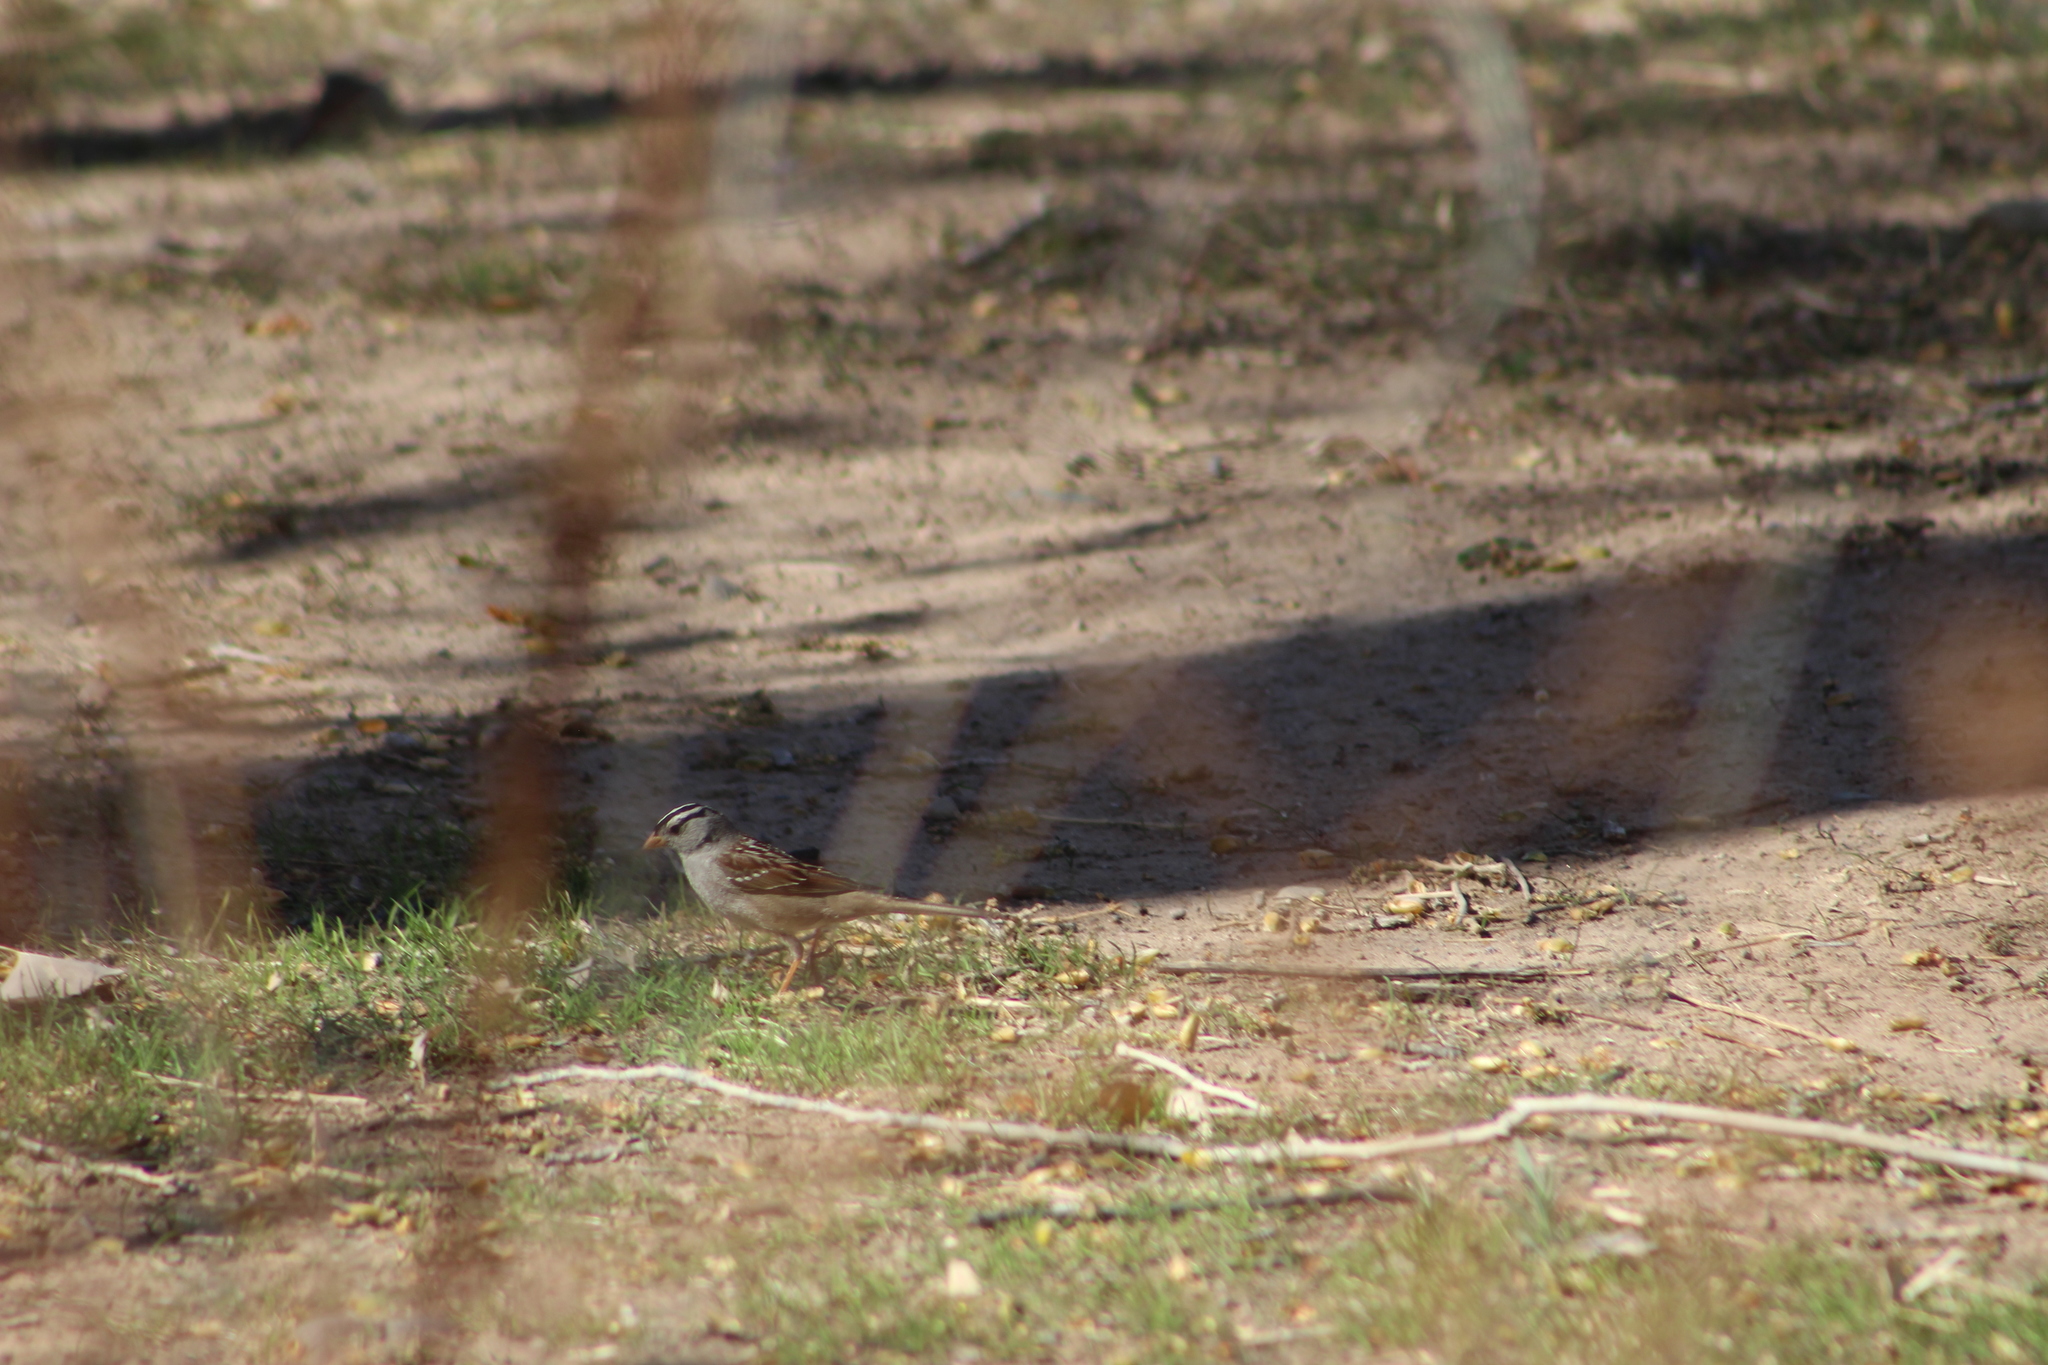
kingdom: Animalia
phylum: Chordata
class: Aves
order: Passeriformes
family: Passerellidae
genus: Zonotrichia
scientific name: Zonotrichia leucophrys
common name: White-crowned sparrow
